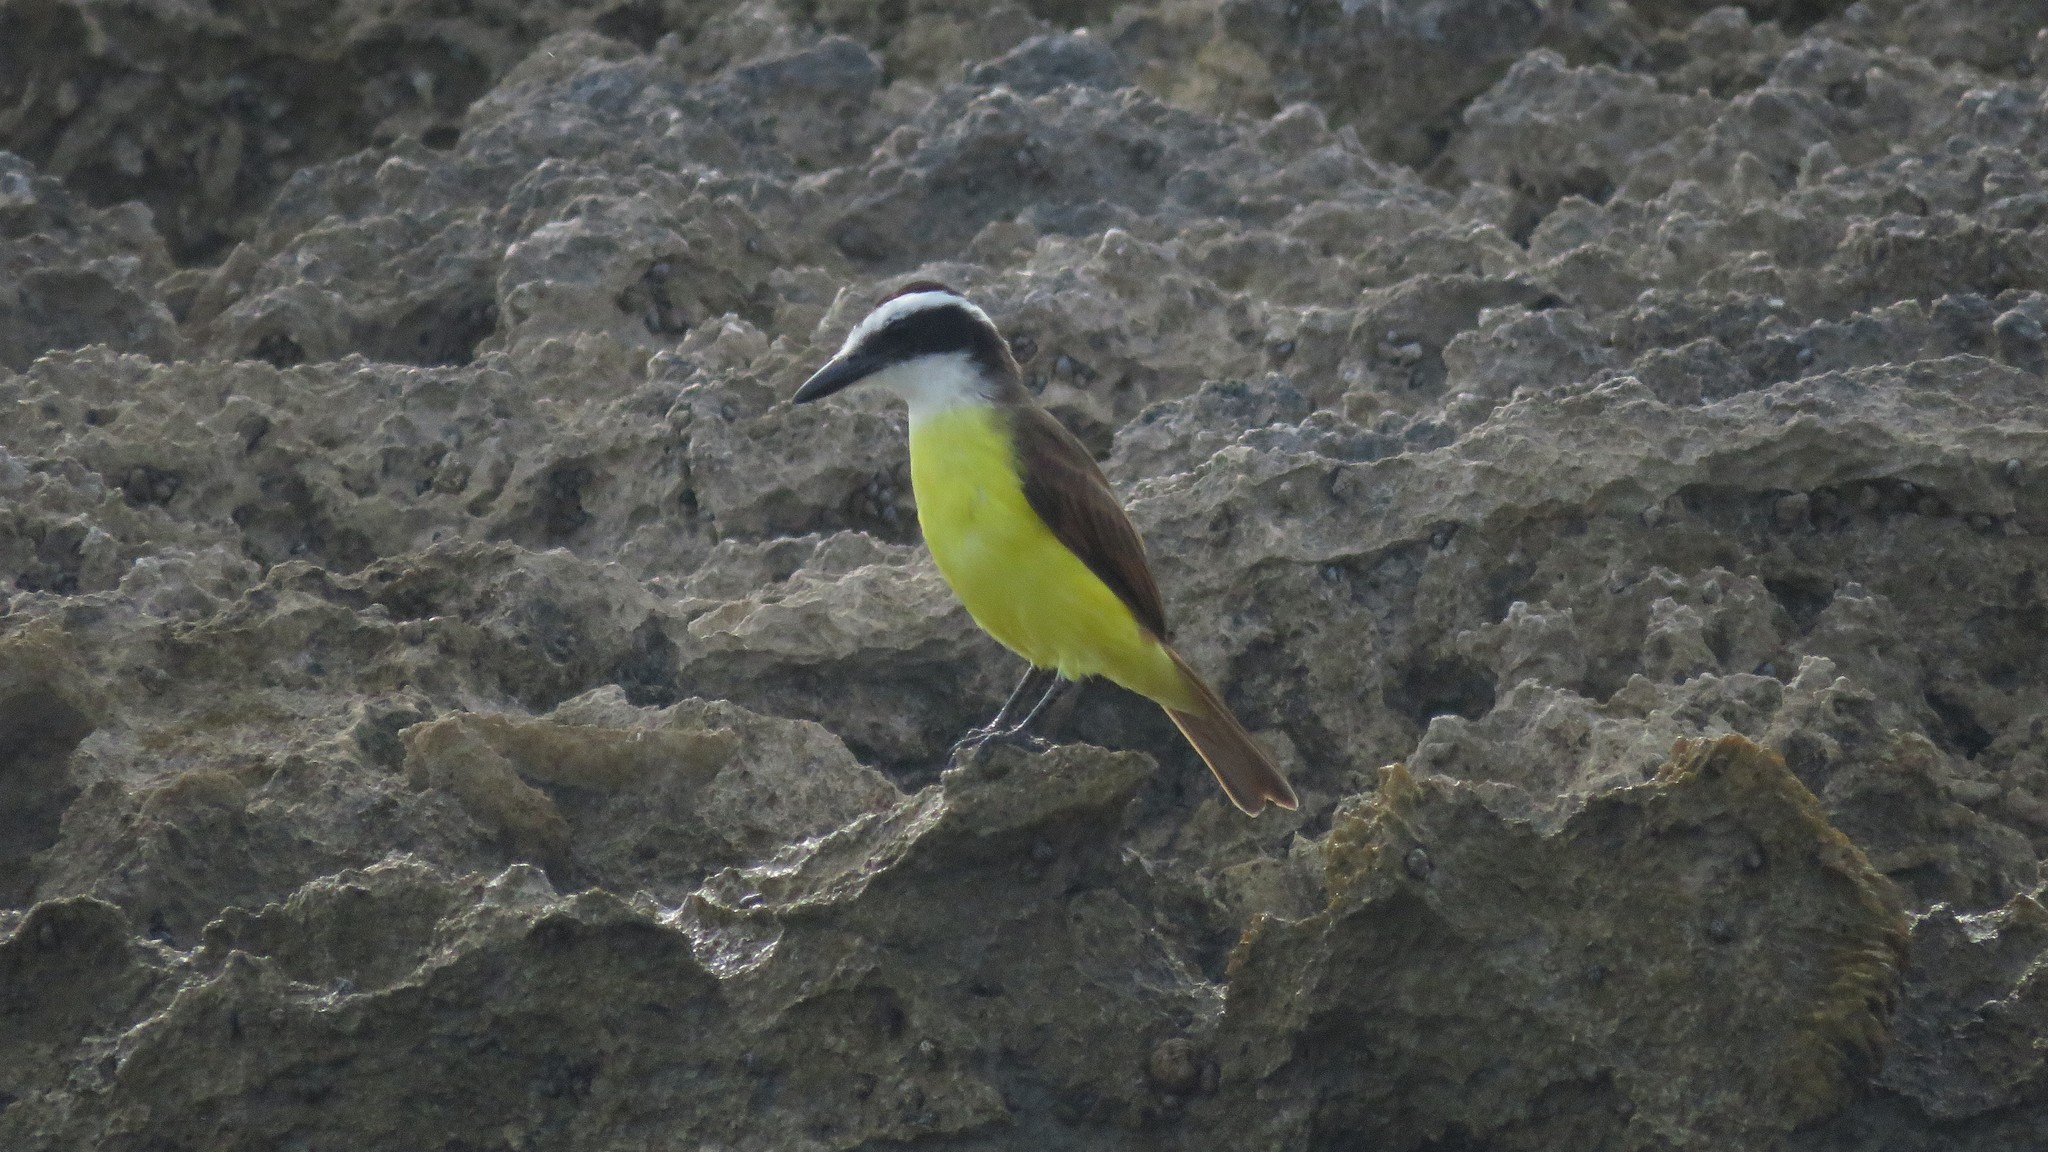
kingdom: Animalia
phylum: Chordata
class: Aves
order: Passeriformes
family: Tyrannidae
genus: Pitangus
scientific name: Pitangus sulphuratus
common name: Great kiskadee
